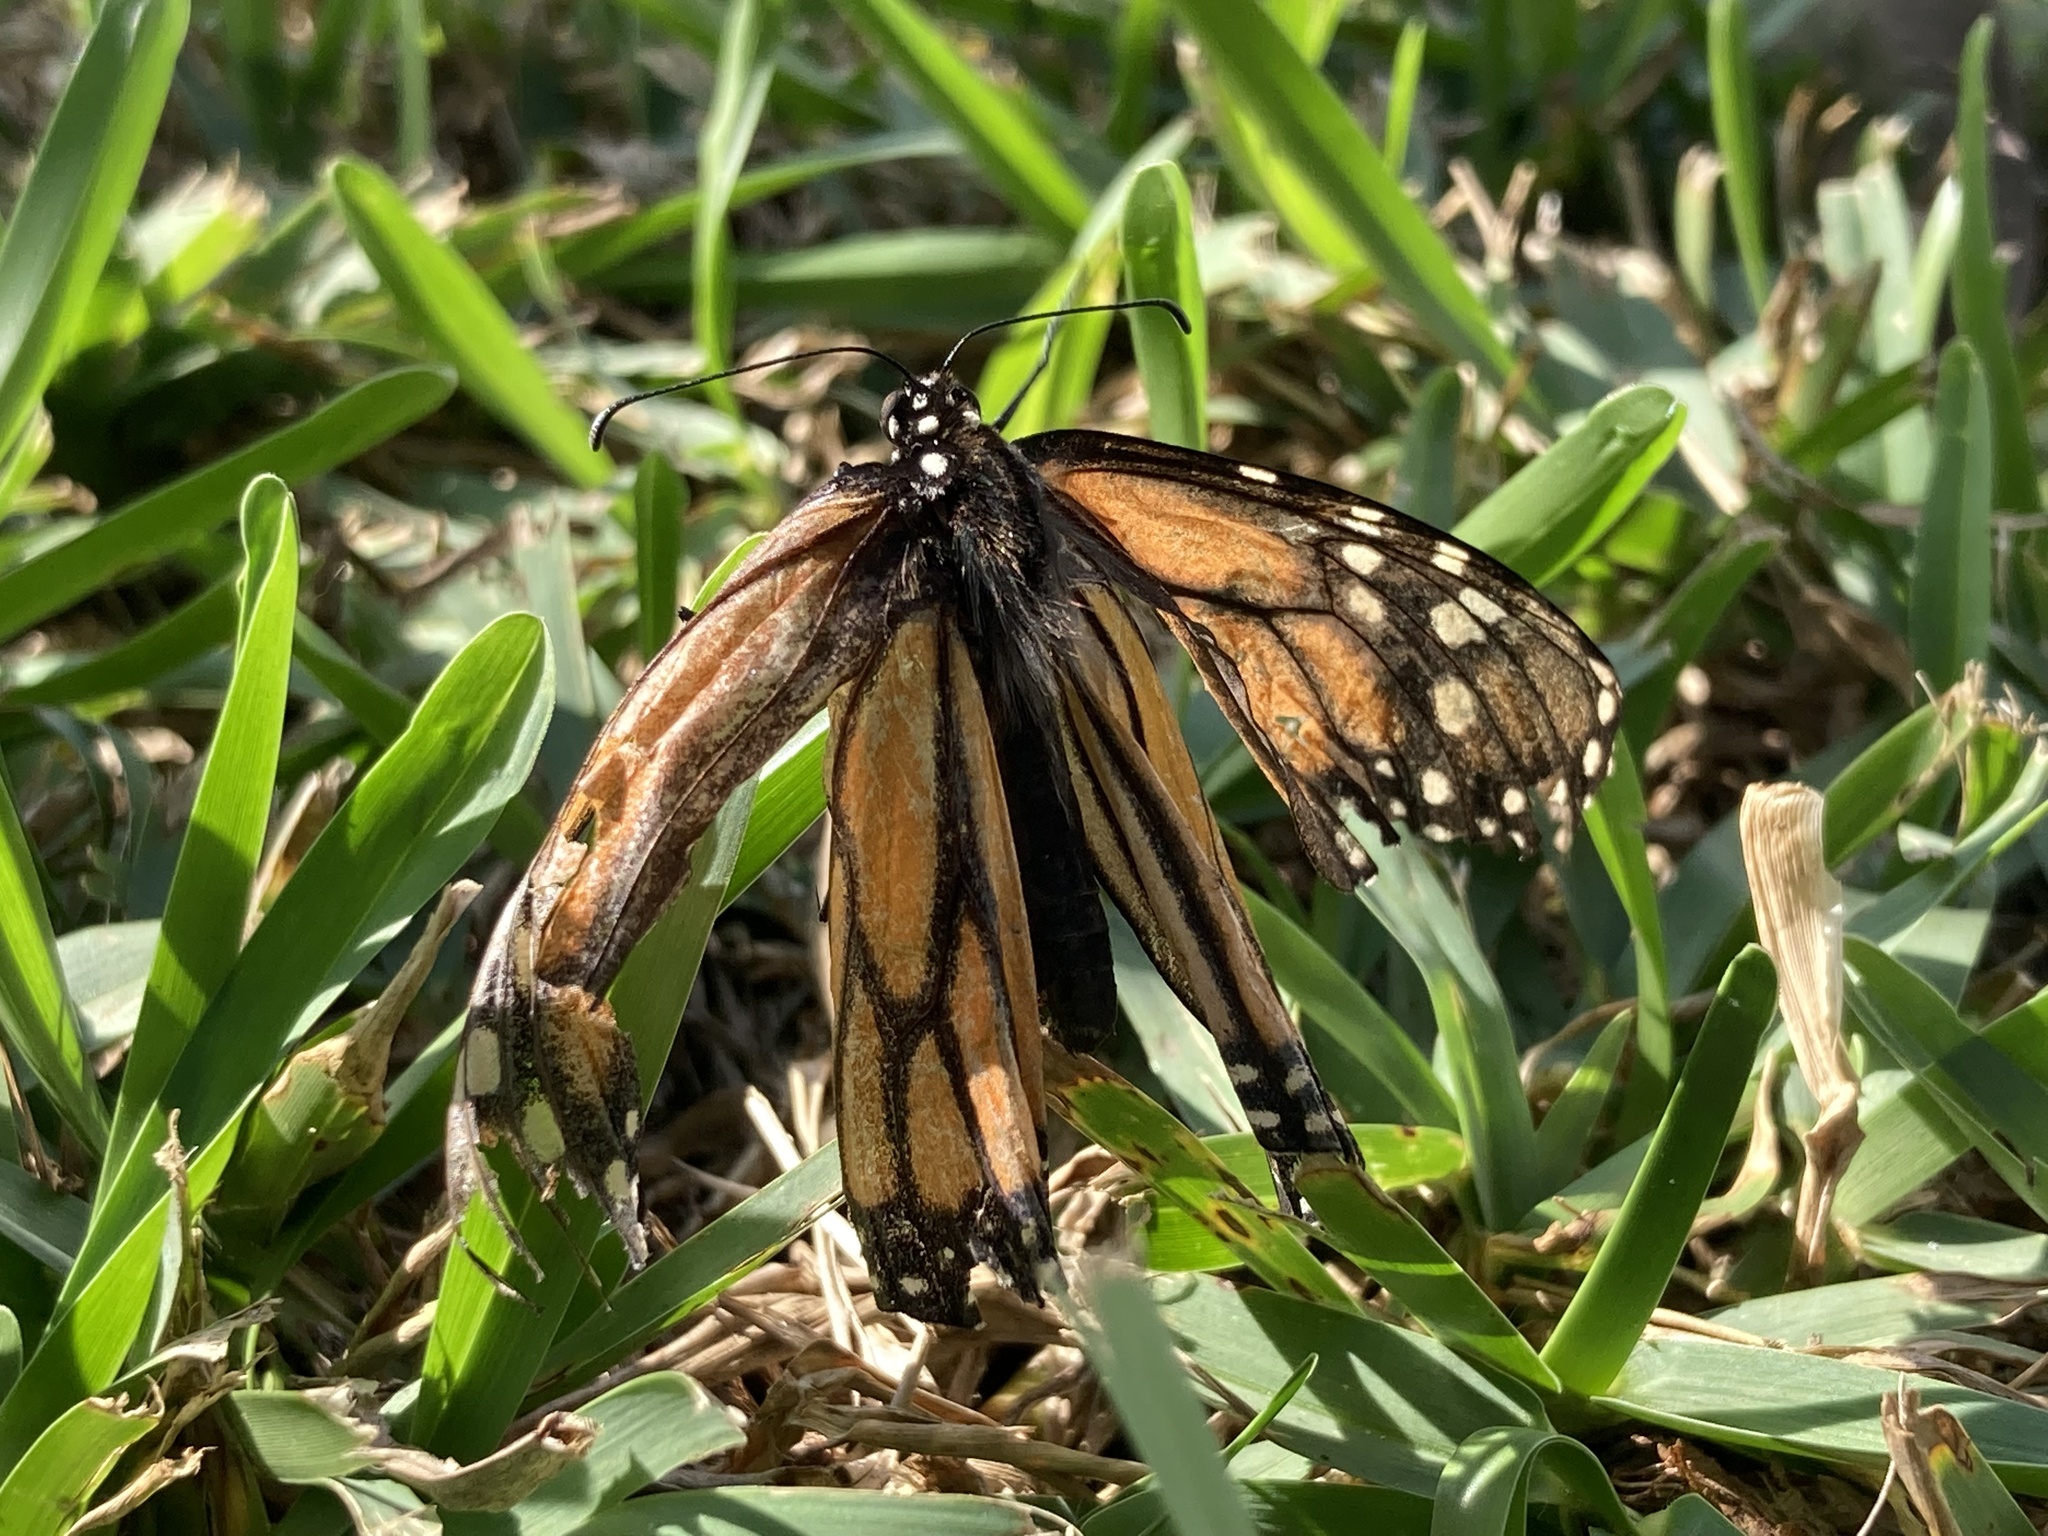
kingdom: Animalia
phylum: Arthropoda
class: Insecta
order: Lepidoptera
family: Nymphalidae
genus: Danaus
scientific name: Danaus plexippus
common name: Monarch
